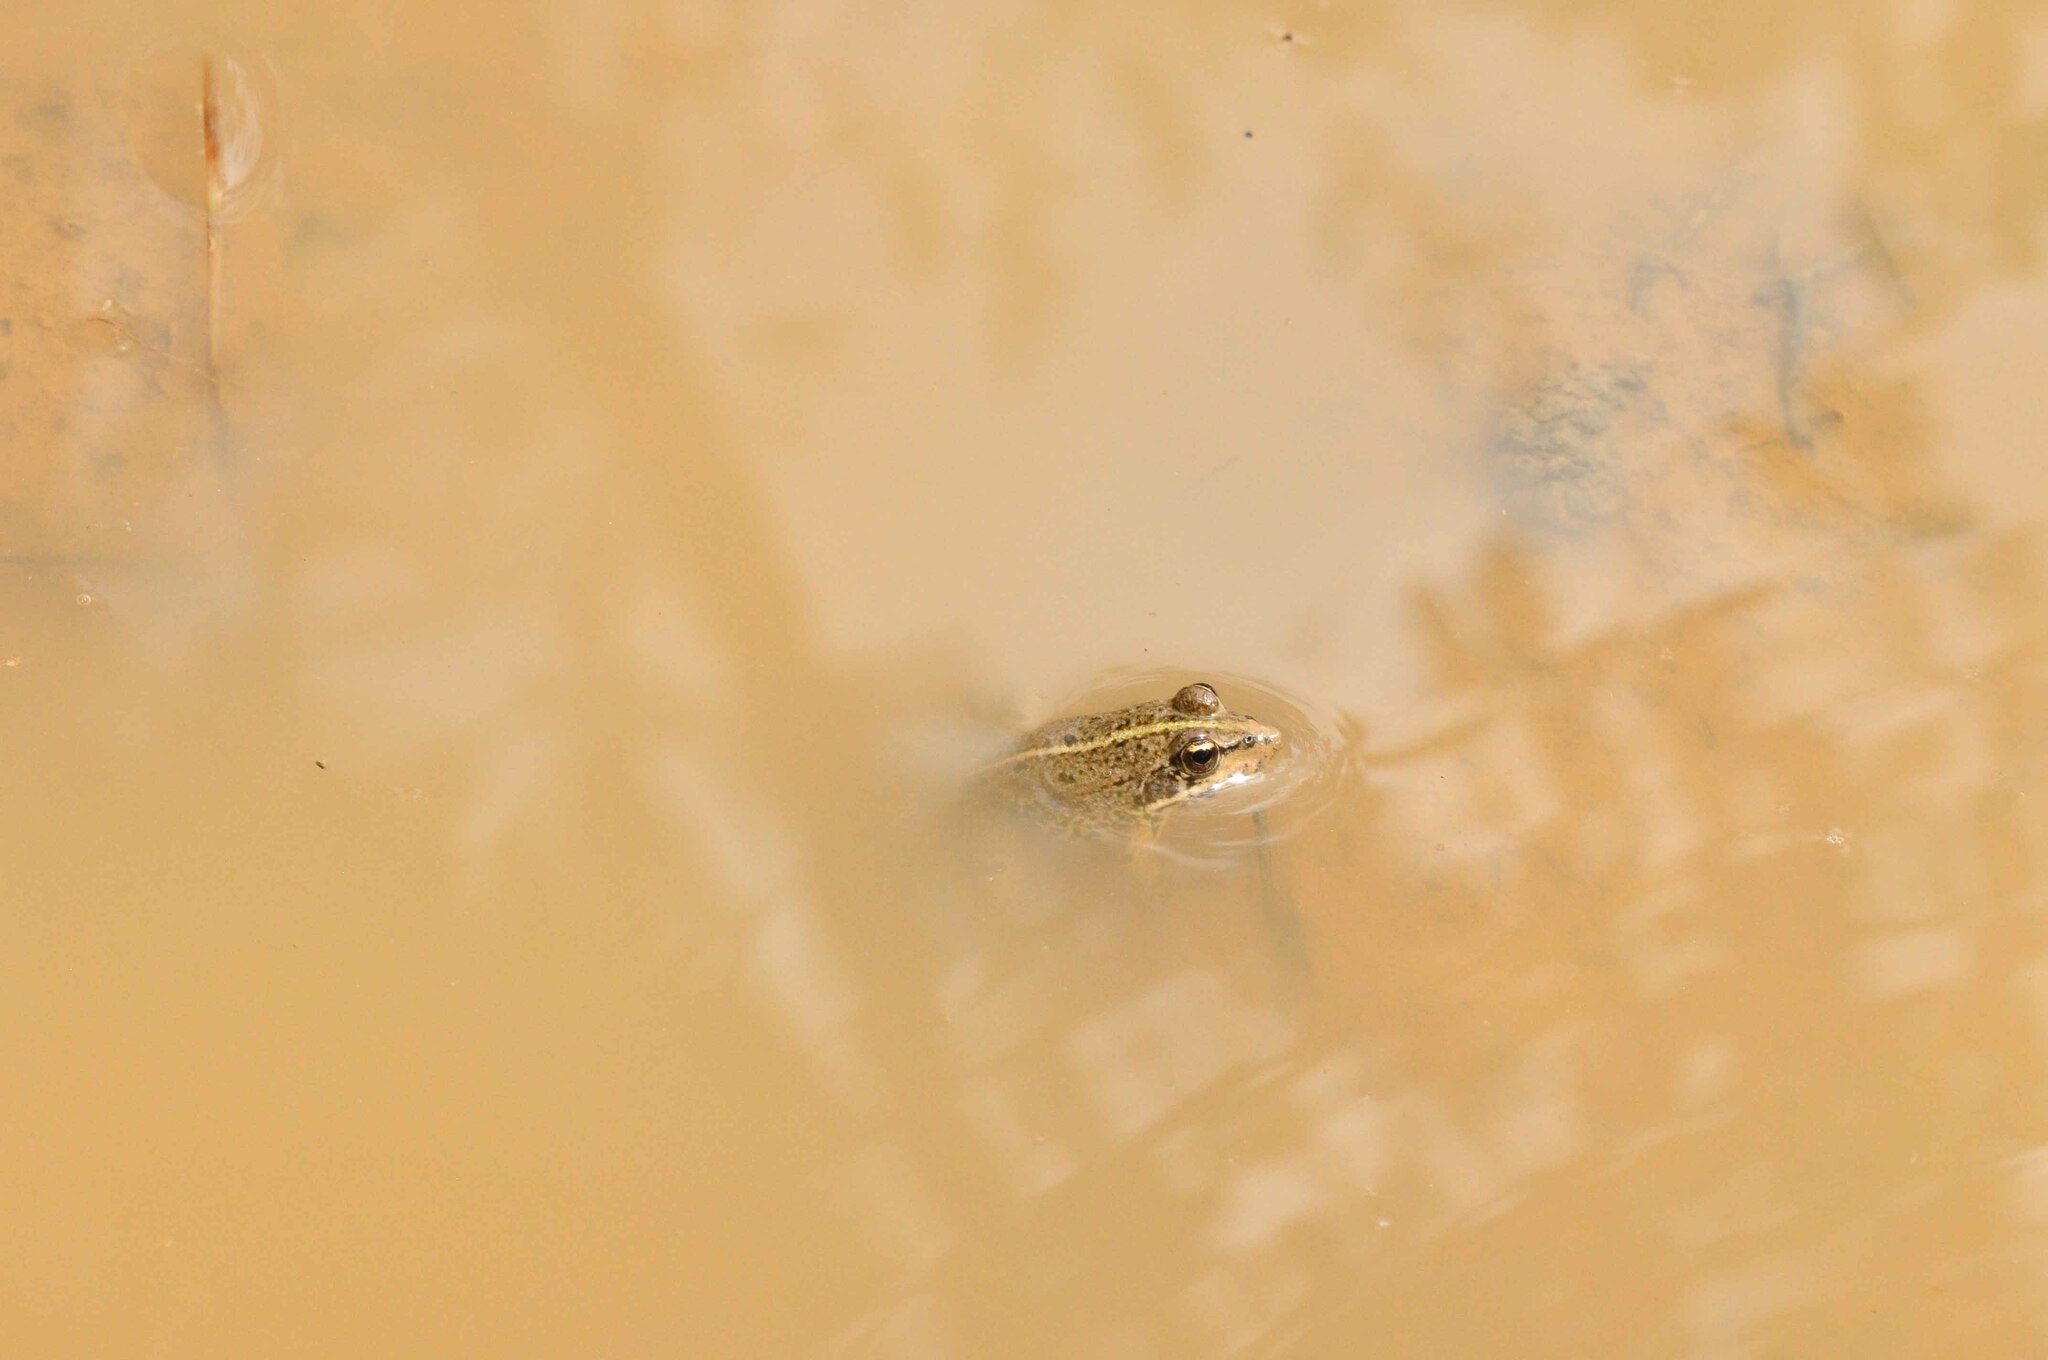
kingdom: Animalia
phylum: Chordata
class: Amphibia
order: Anura
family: Ranidae
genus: Pelophylax
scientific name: Pelophylax perezi
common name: Perez's frog
